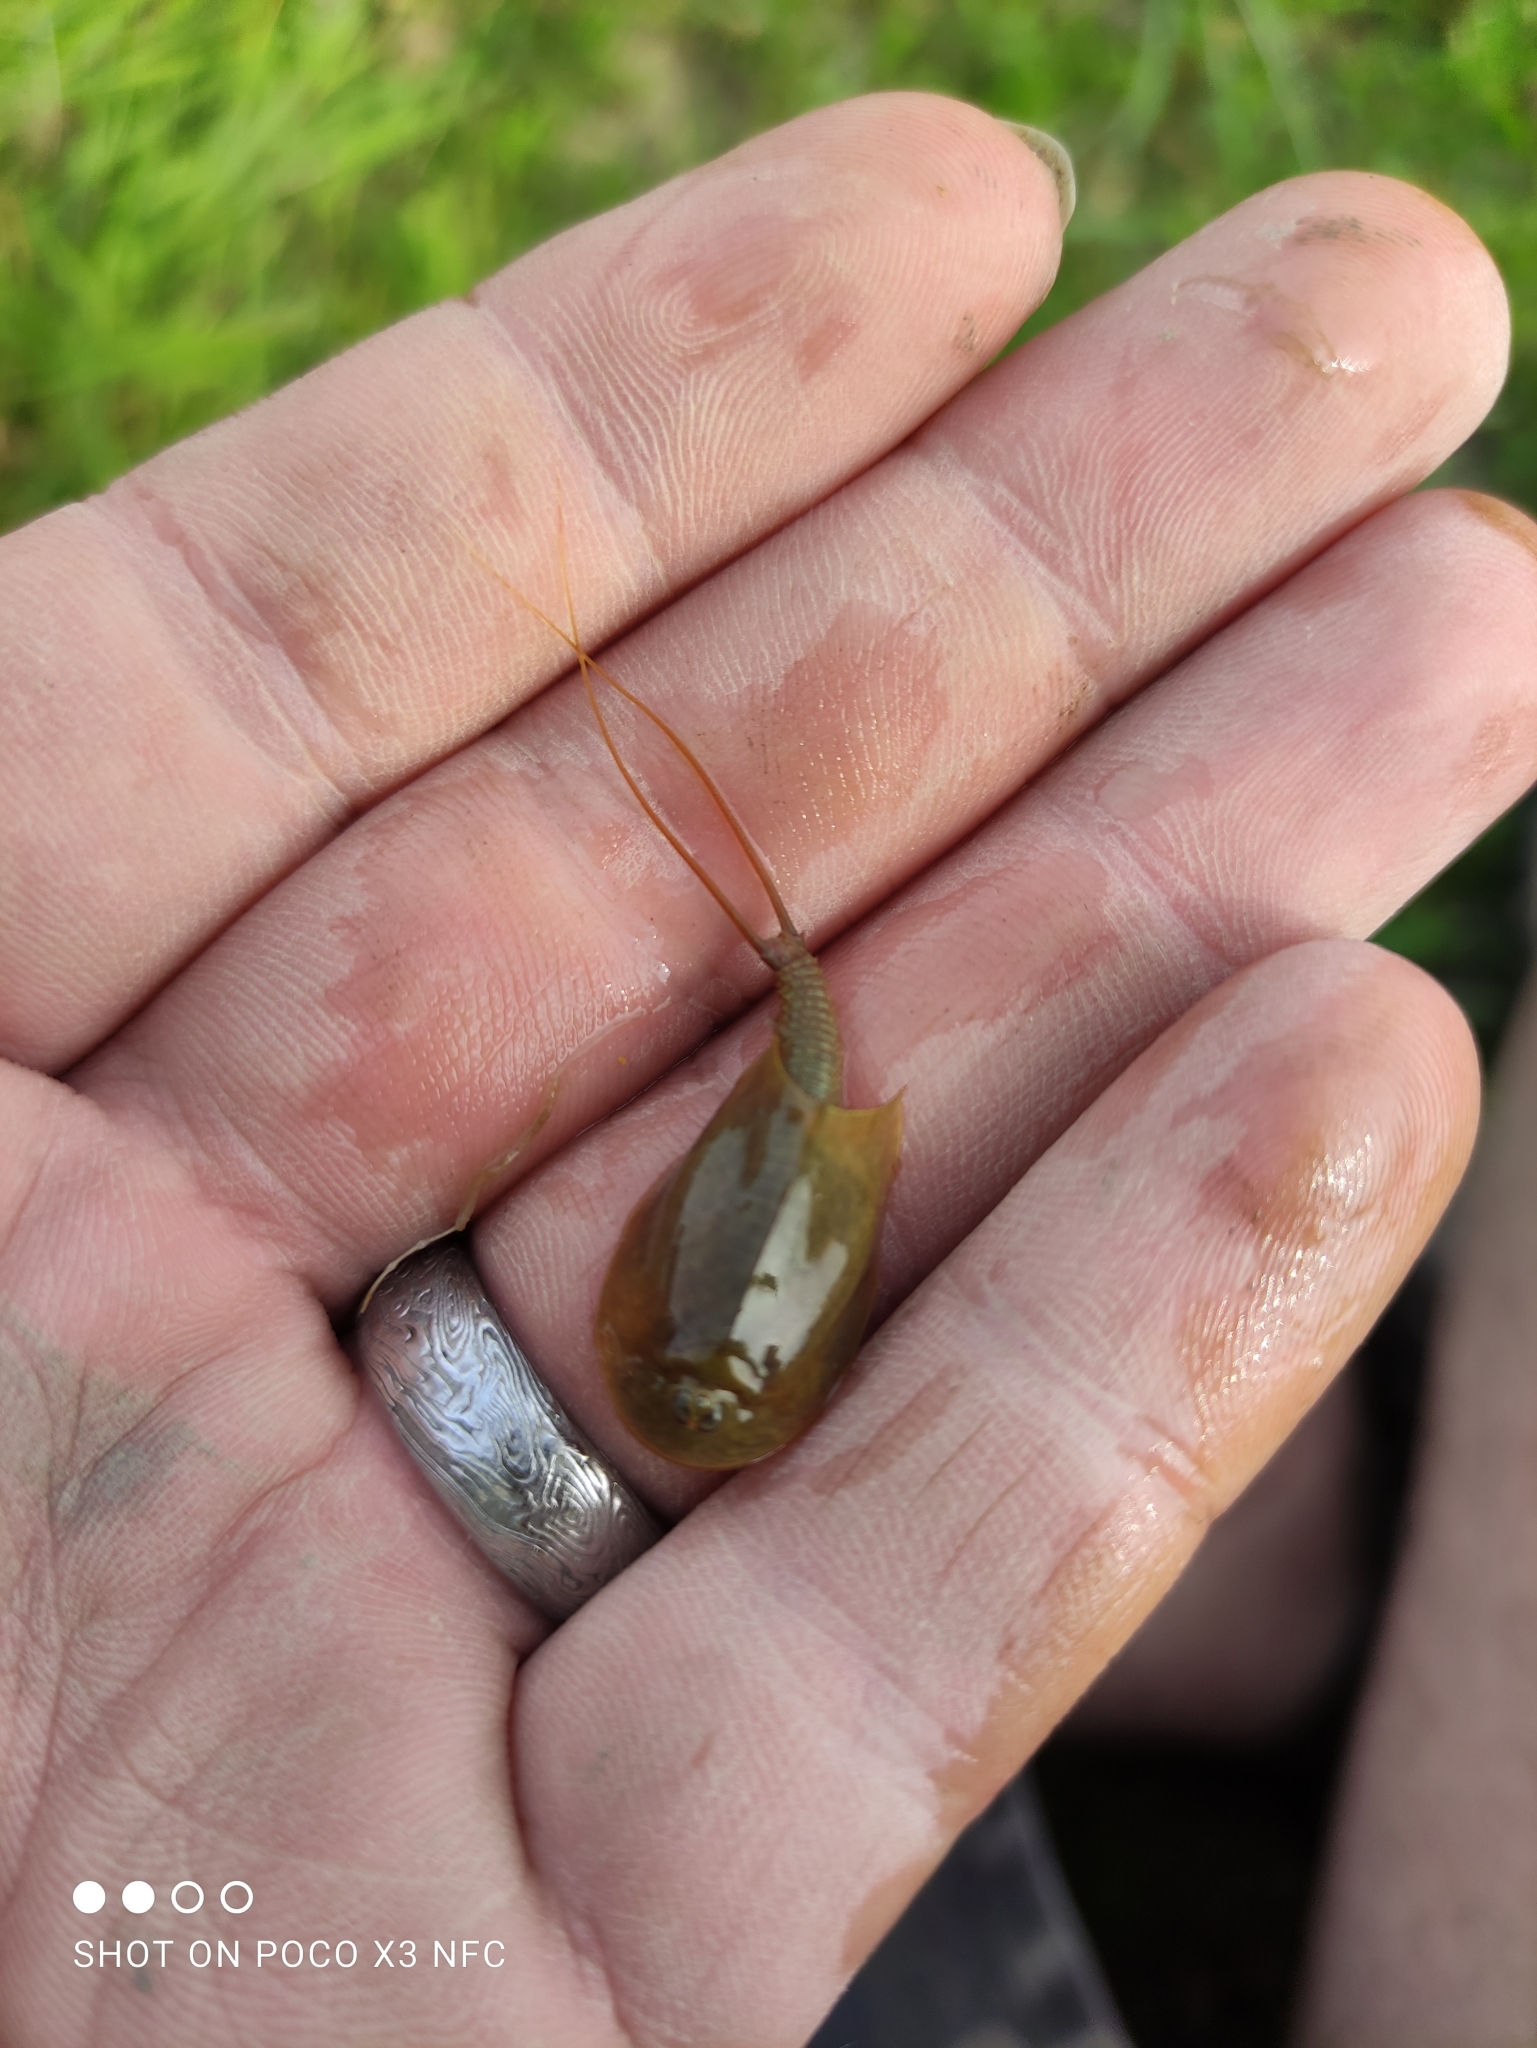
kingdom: Animalia
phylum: Arthropoda
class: Branchiopoda
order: Notostraca
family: Triopsidae
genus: Triops
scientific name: Triops cancriformis
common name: Tadpole shrimp
